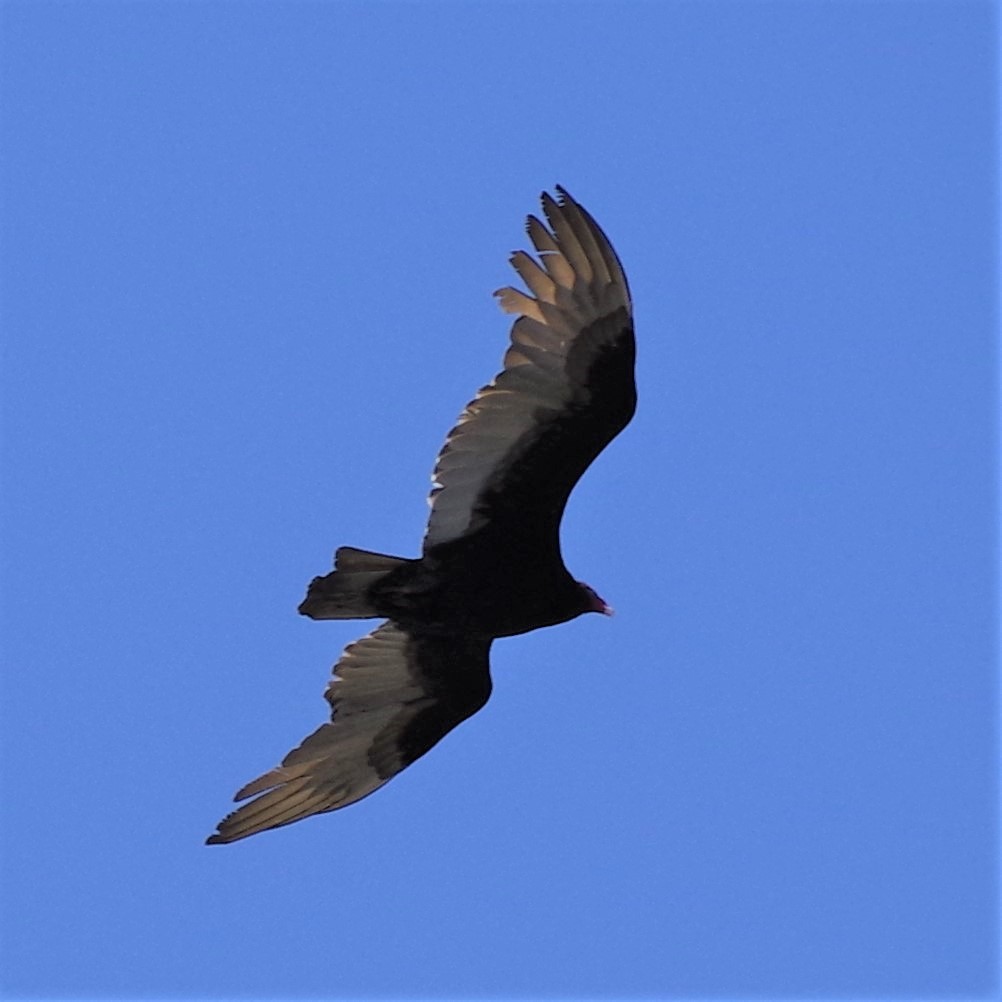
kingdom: Animalia
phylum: Chordata
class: Aves
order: Accipitriformes
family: Cathartidae
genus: Cathartes
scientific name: Cathartes aura
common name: Turkey vulture
